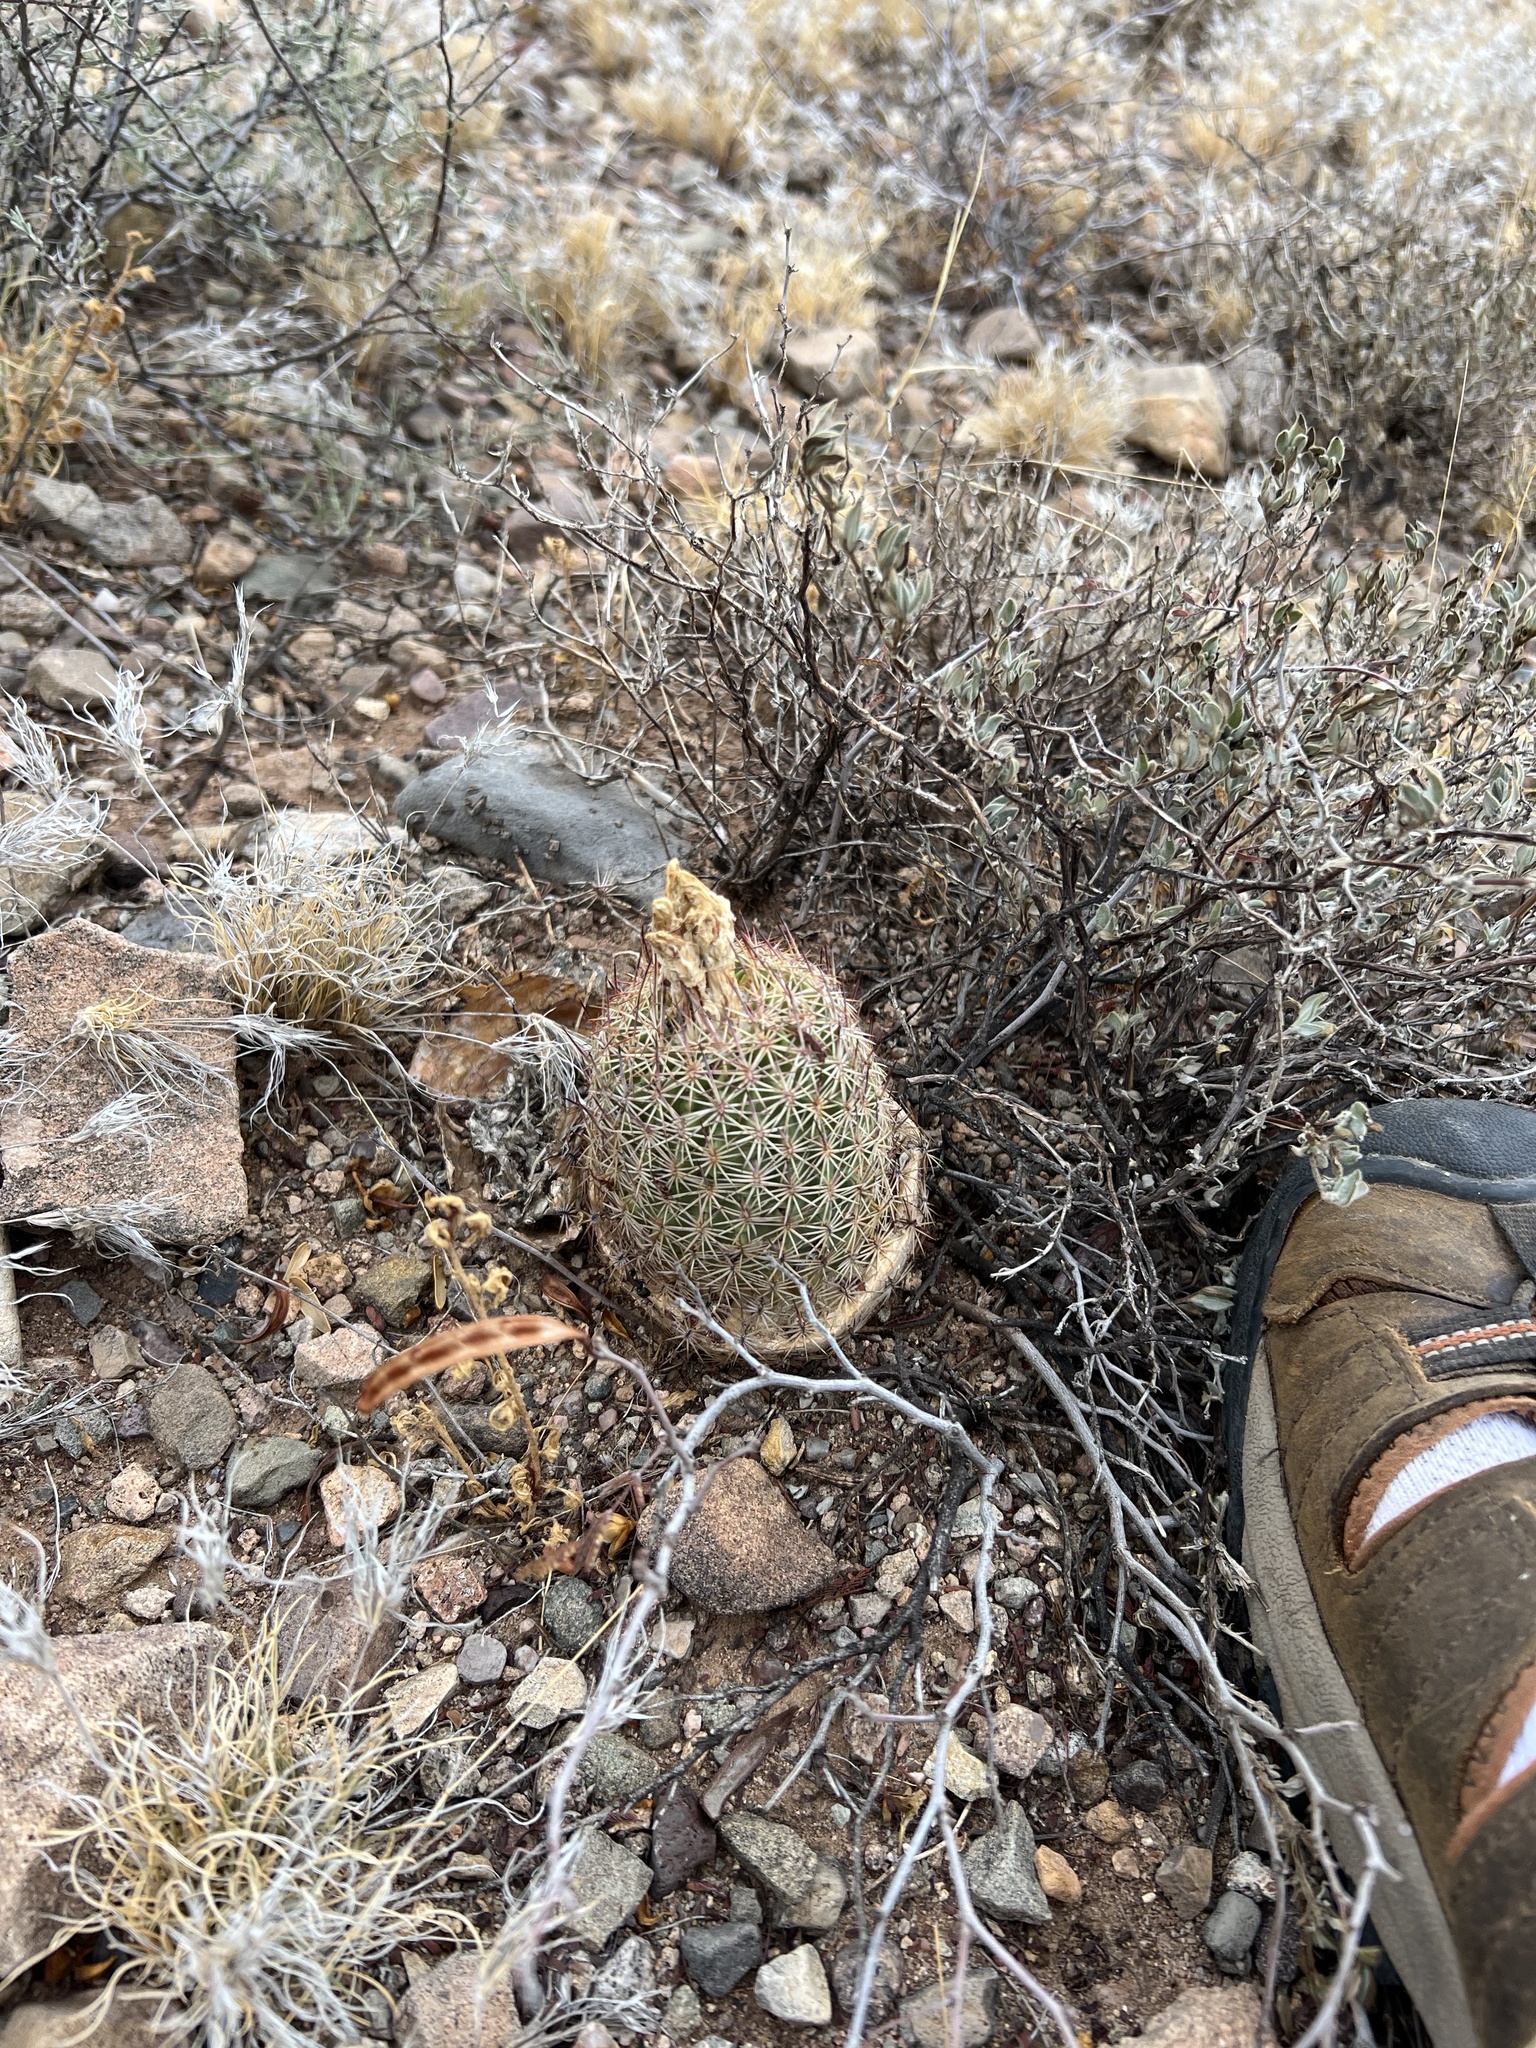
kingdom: Plantae
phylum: Tracheophyta
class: Magnoliopsida
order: Caryophyllales
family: Cactaceae
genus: Sclerocactus
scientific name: Sclerocactus johnsonii
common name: Eight-spine fishhook cactus
